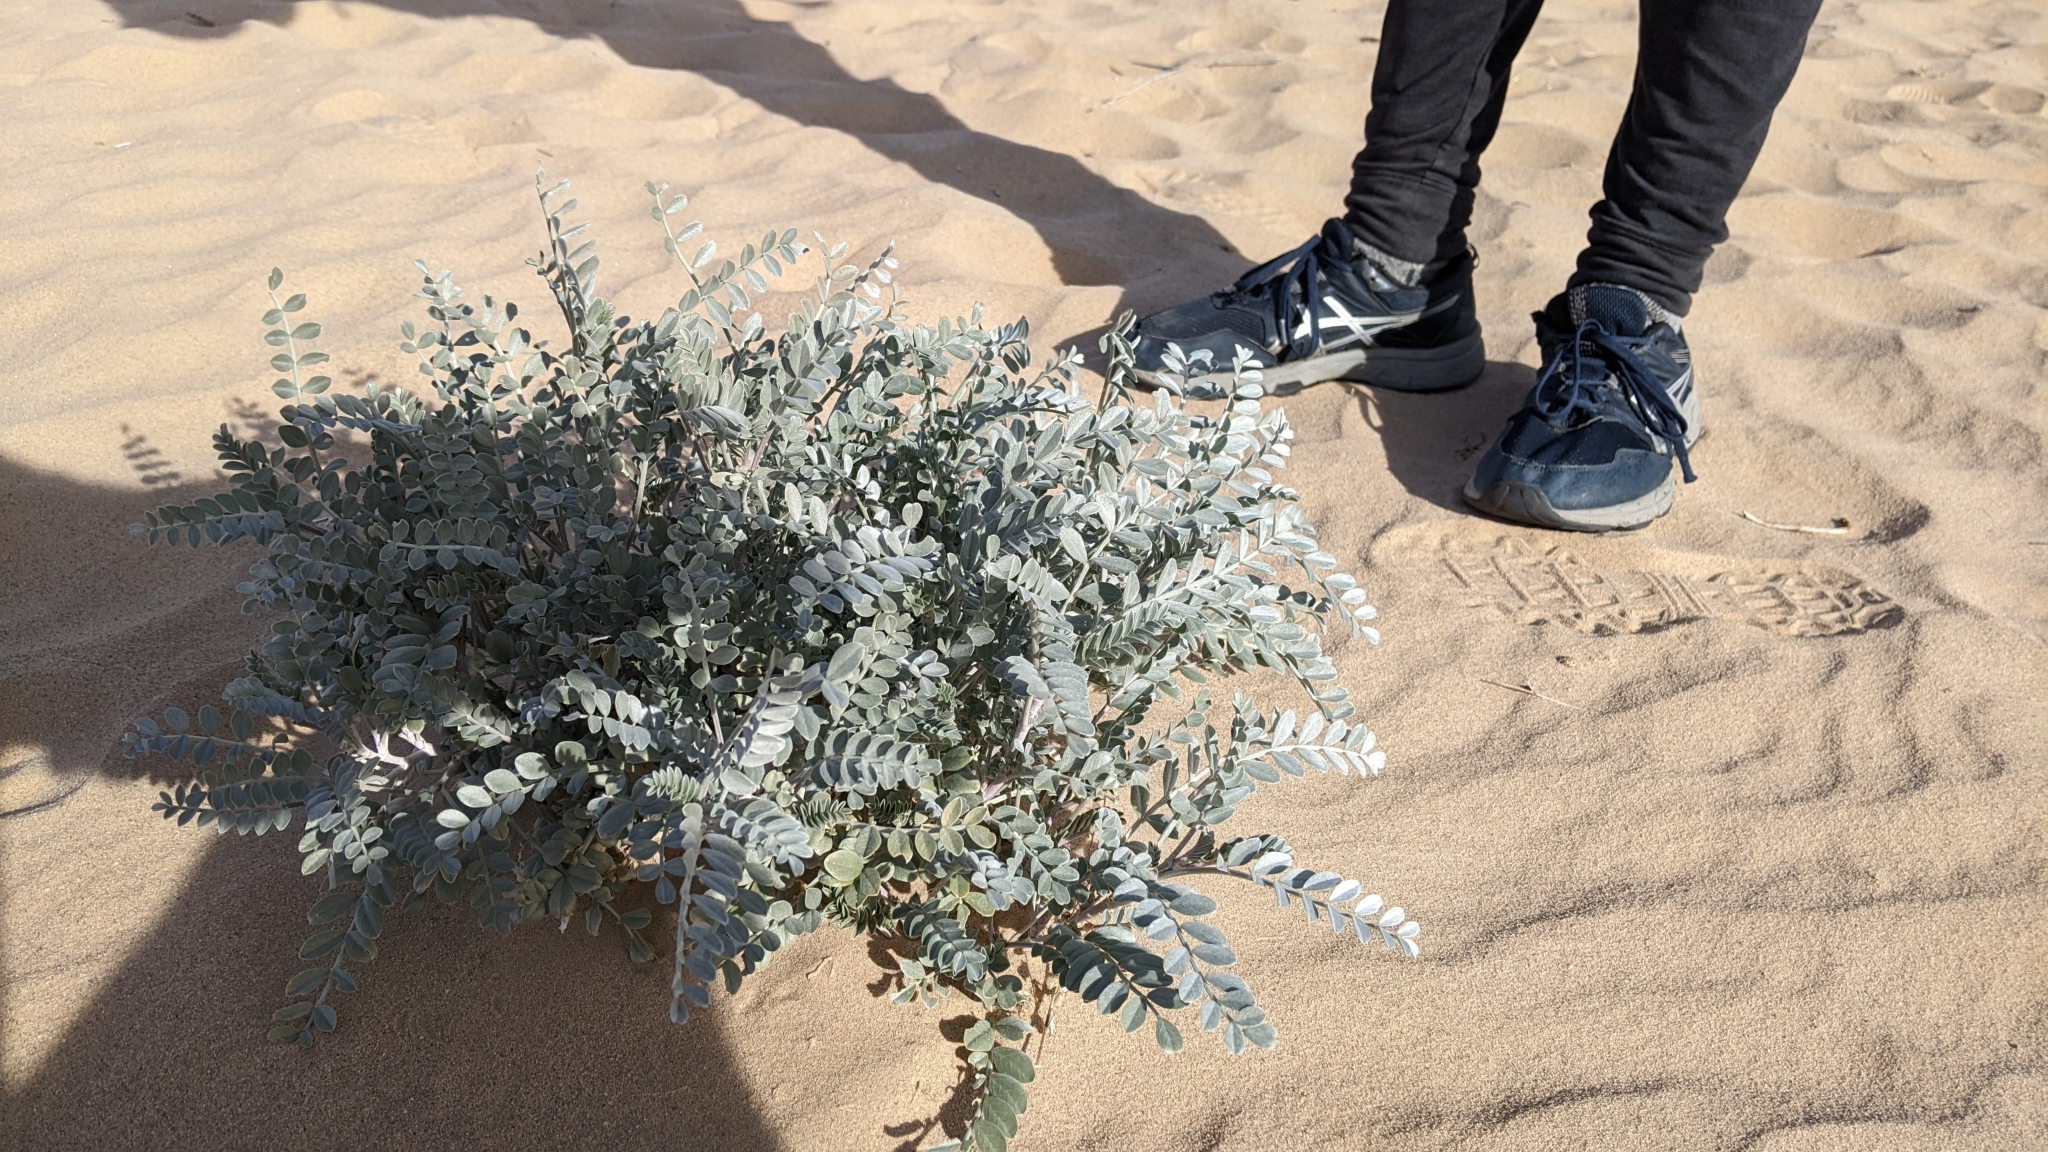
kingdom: Plantae
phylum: Tracheophyta
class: Magnoliopsida
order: Fabales
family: Fabaceae
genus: Astragalus
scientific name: Astragalus lentiginosus
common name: Freckled milkvetch
